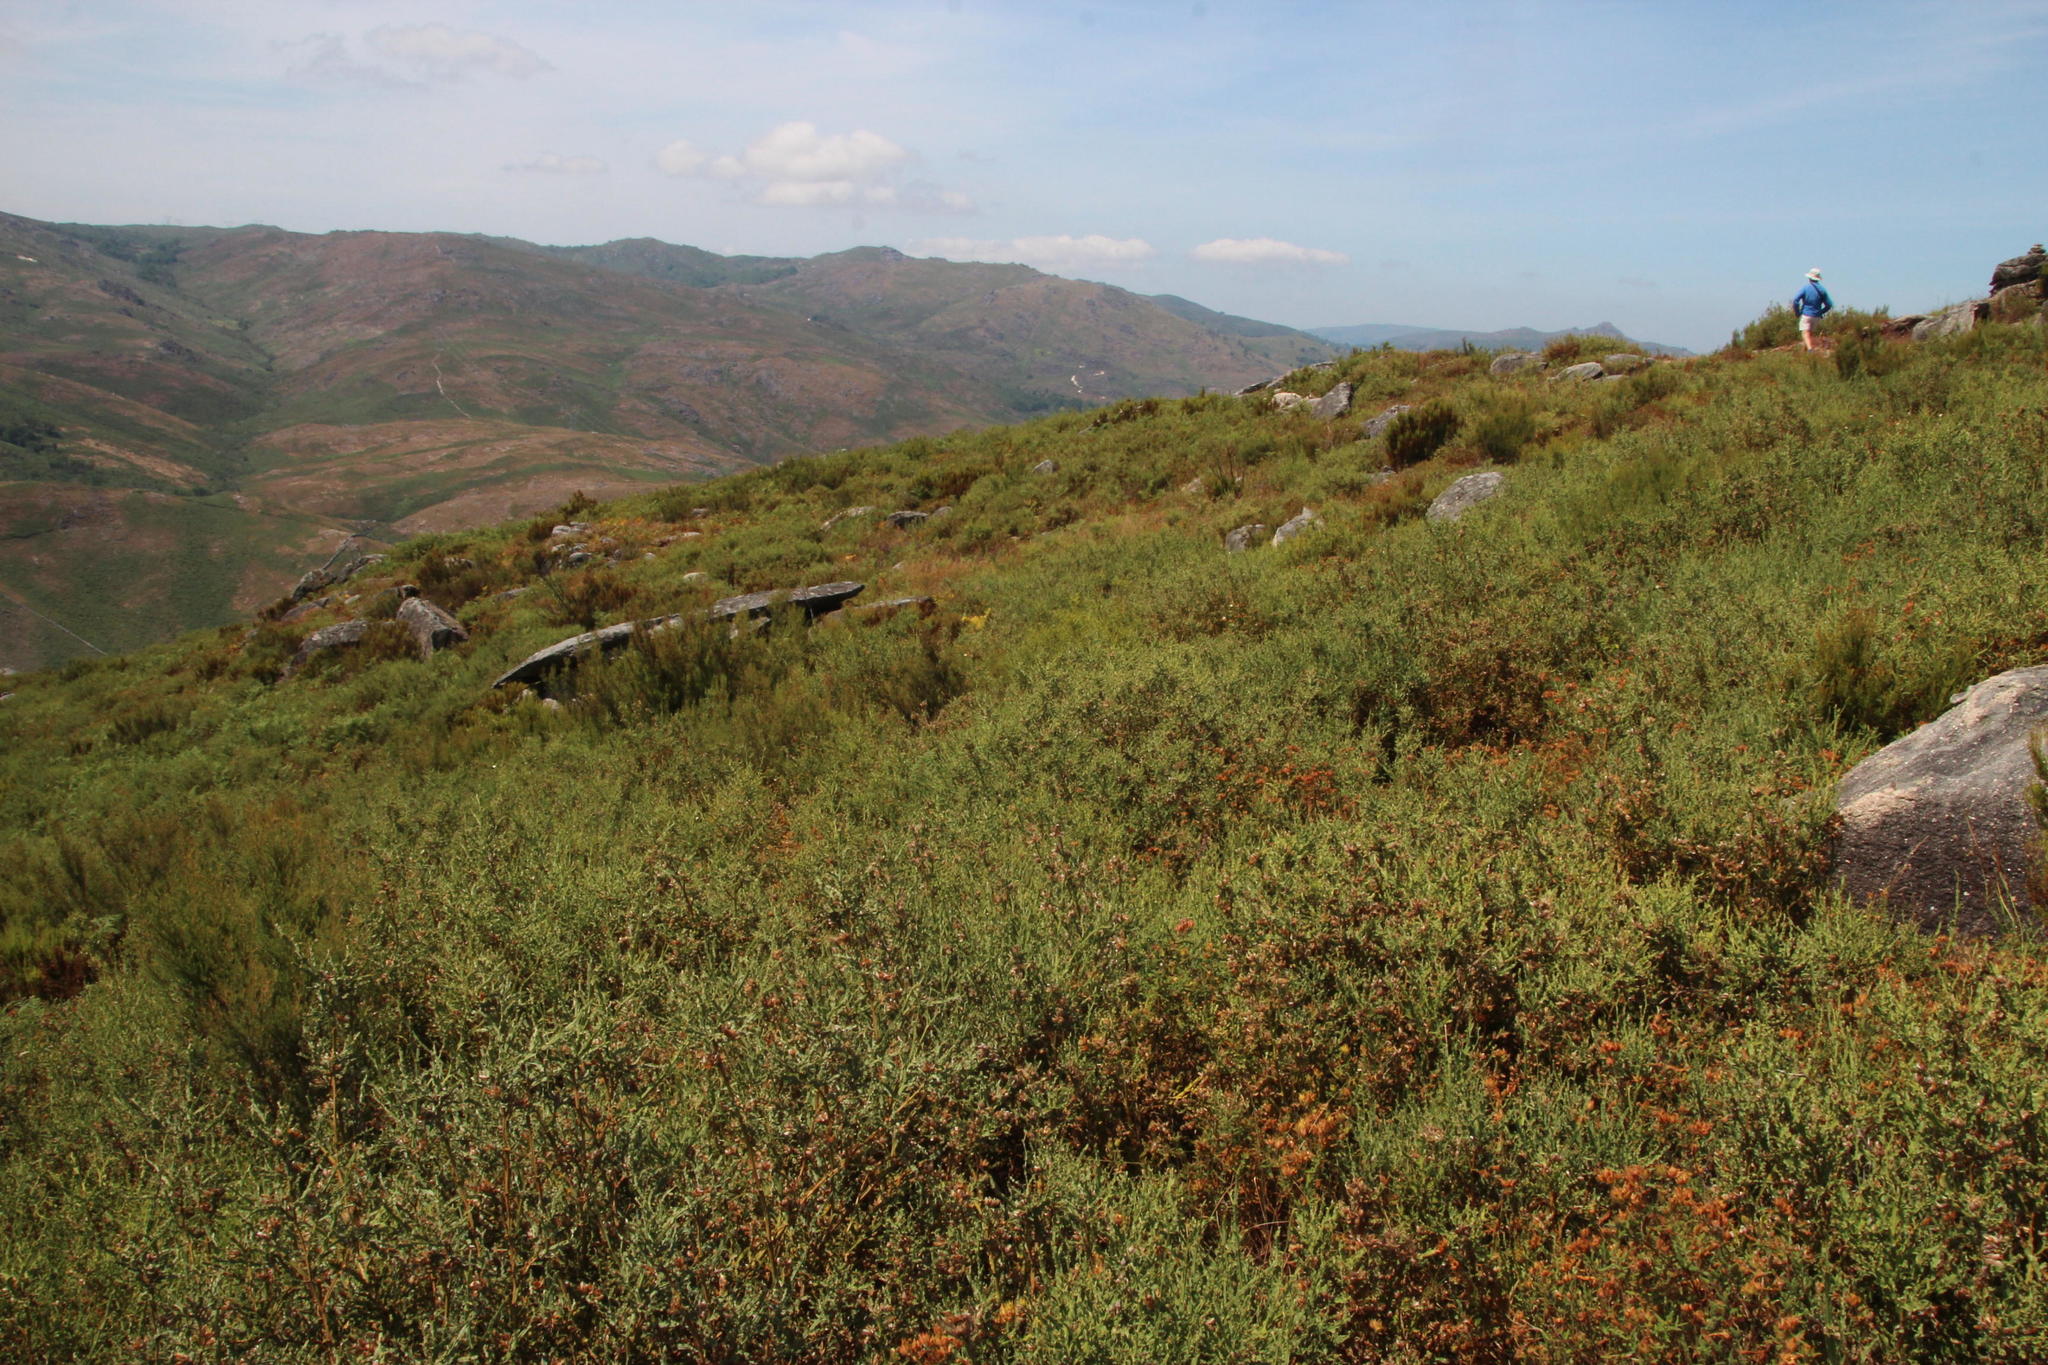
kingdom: Plantae
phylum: Tracheophyta
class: Magnoliopsida
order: Fabales
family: Fabaceae
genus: Genista
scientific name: Genista tridentata
